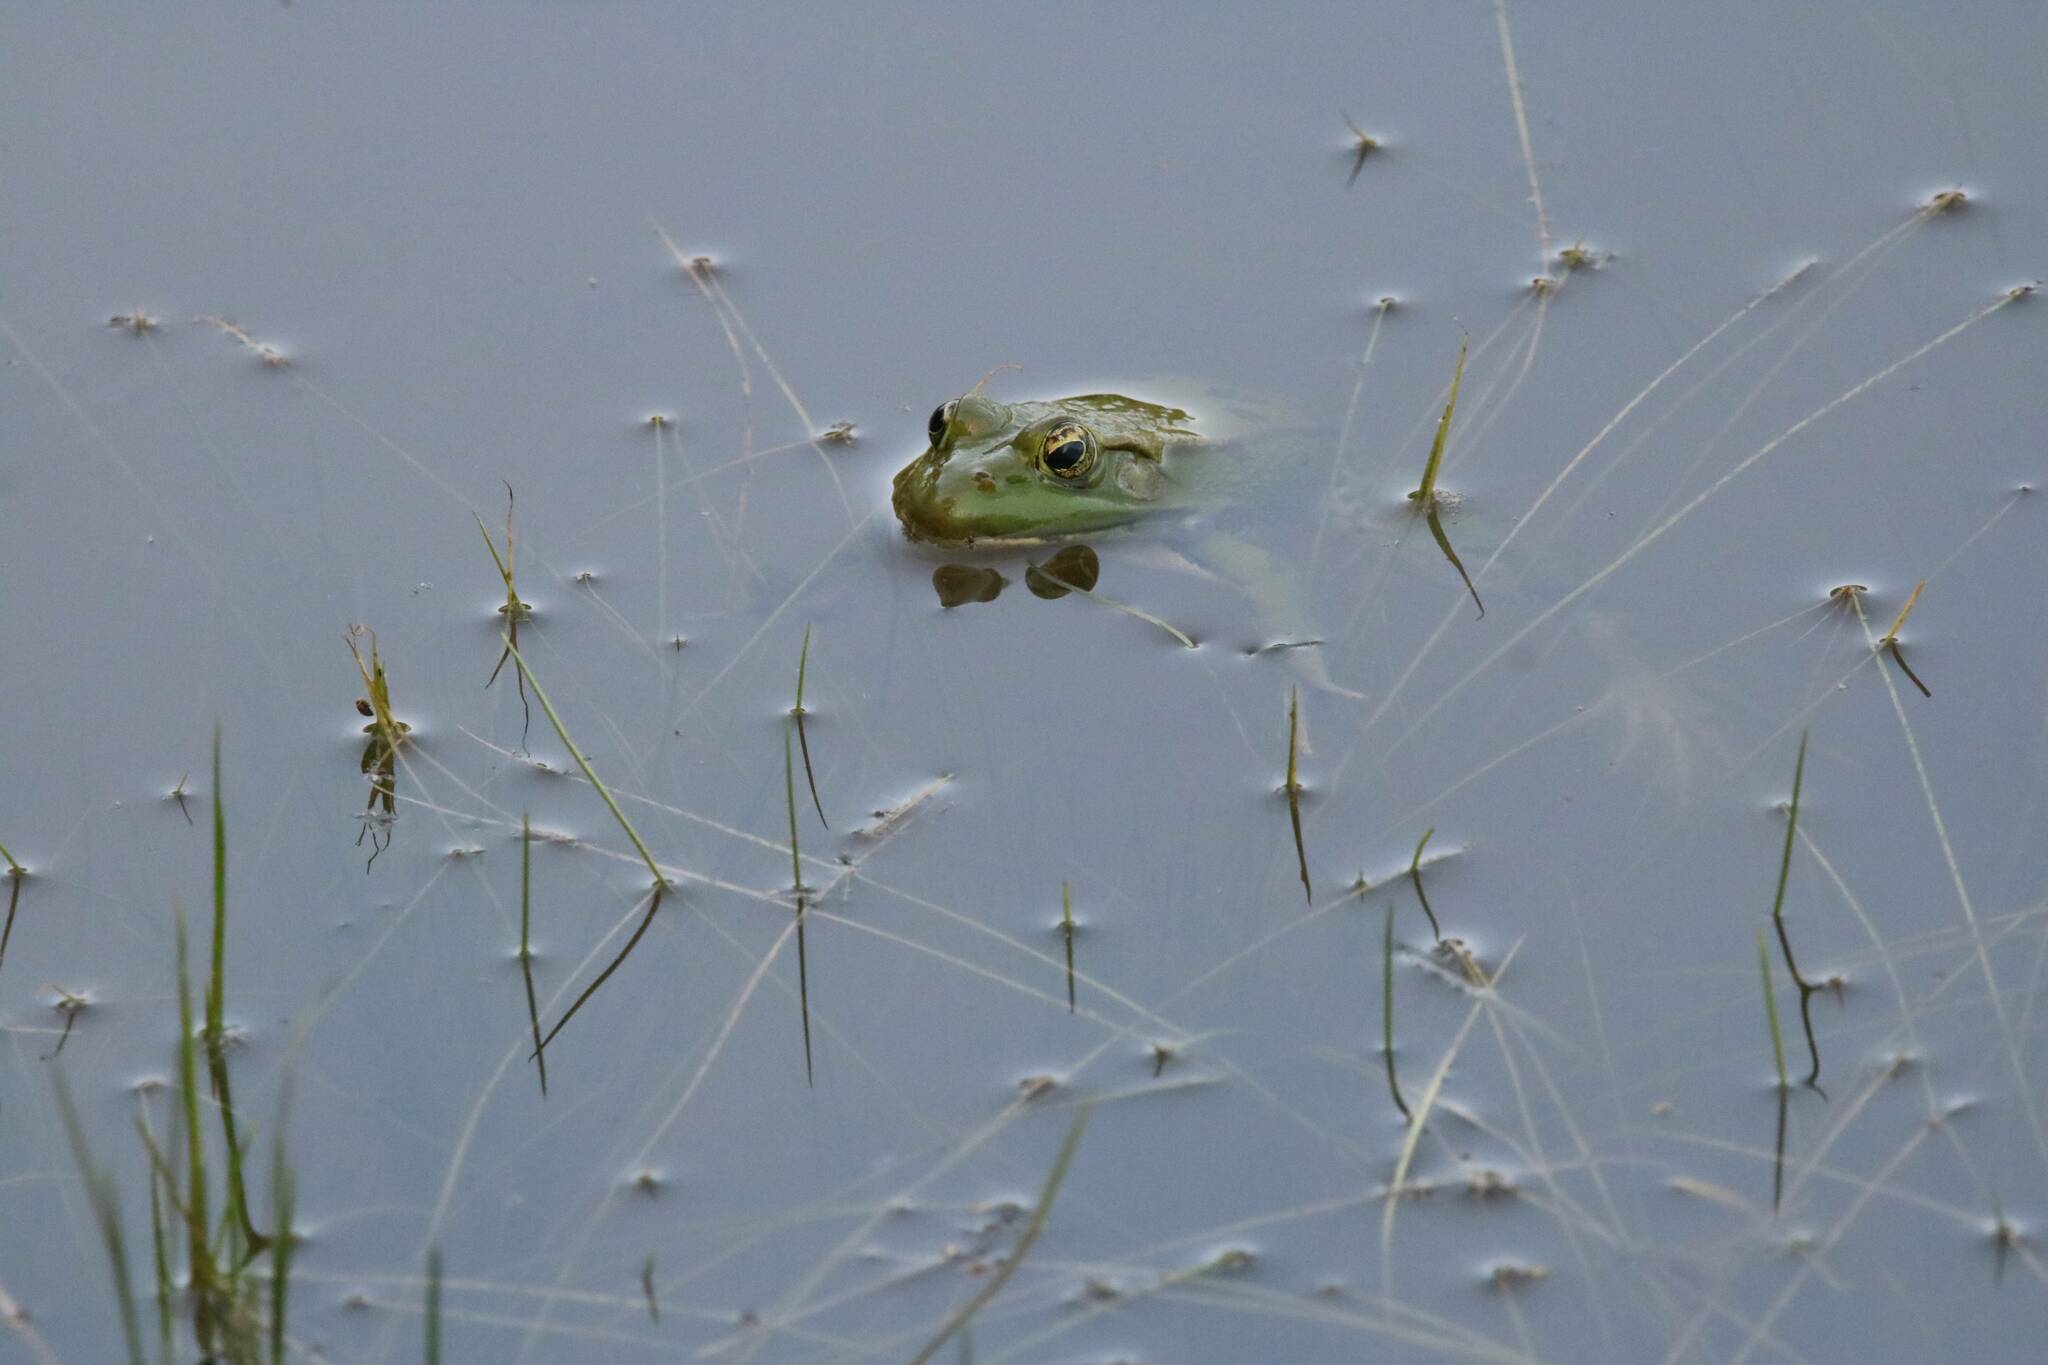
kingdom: Animalia
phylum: Chordata
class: Amphibia
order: Anura
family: Ranidae
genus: Pelophylax
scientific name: Pelophylax saharicus
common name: Sahara frog
